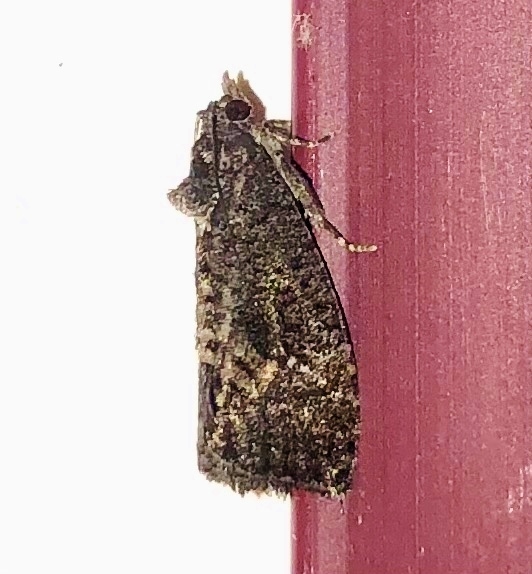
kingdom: Animalia
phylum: Arthropoda
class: Insecta
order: Lepidoptera
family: Tortricidae
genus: Gymnandrosoma
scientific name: Gymnandrosoma punctidiscanum
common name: Dotted ecdytolopha moth
